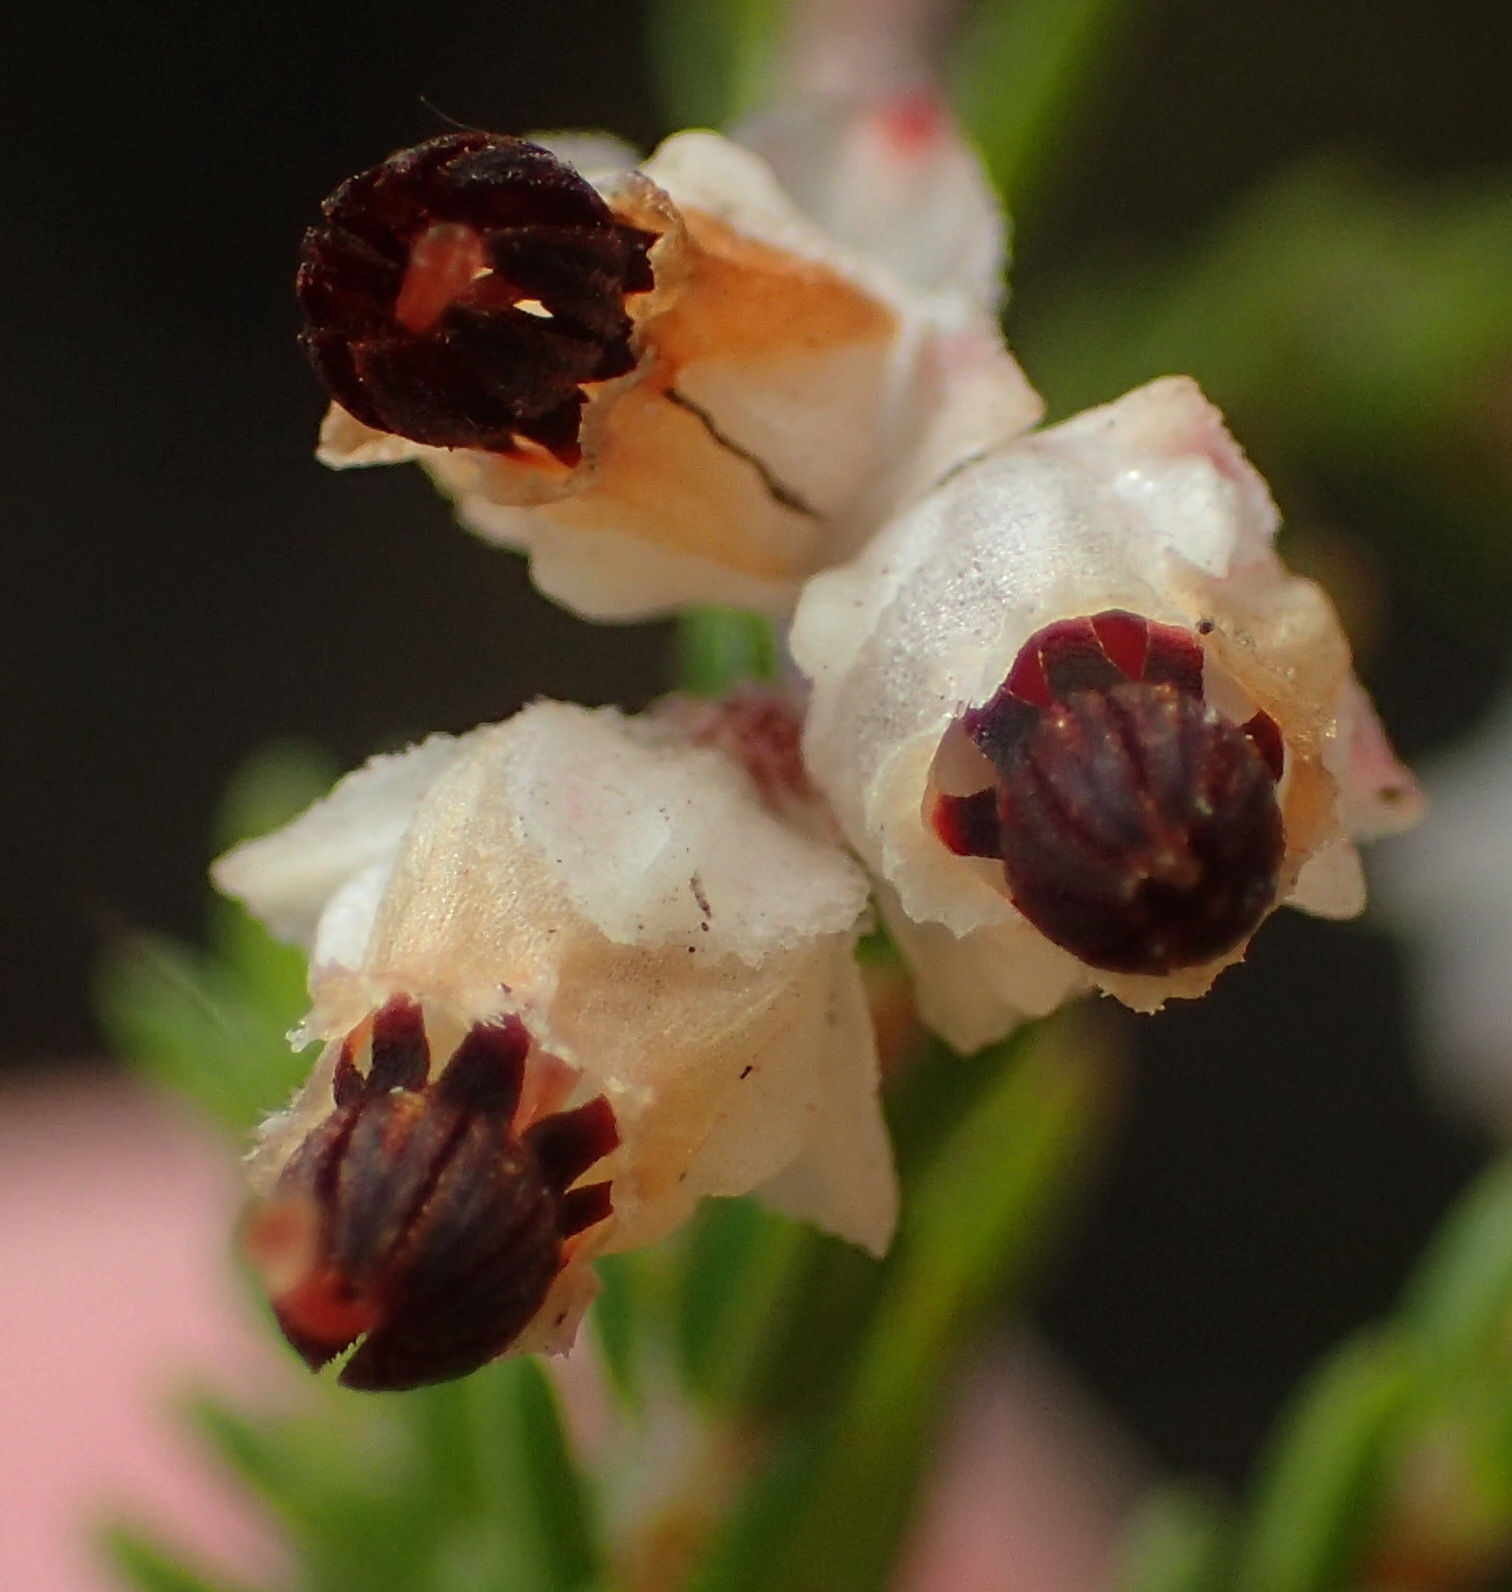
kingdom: Plantae
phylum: Tracheophyta
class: Magnoliopsida
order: Ericales
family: Ericaceae
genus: Erica
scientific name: Erica triceps
